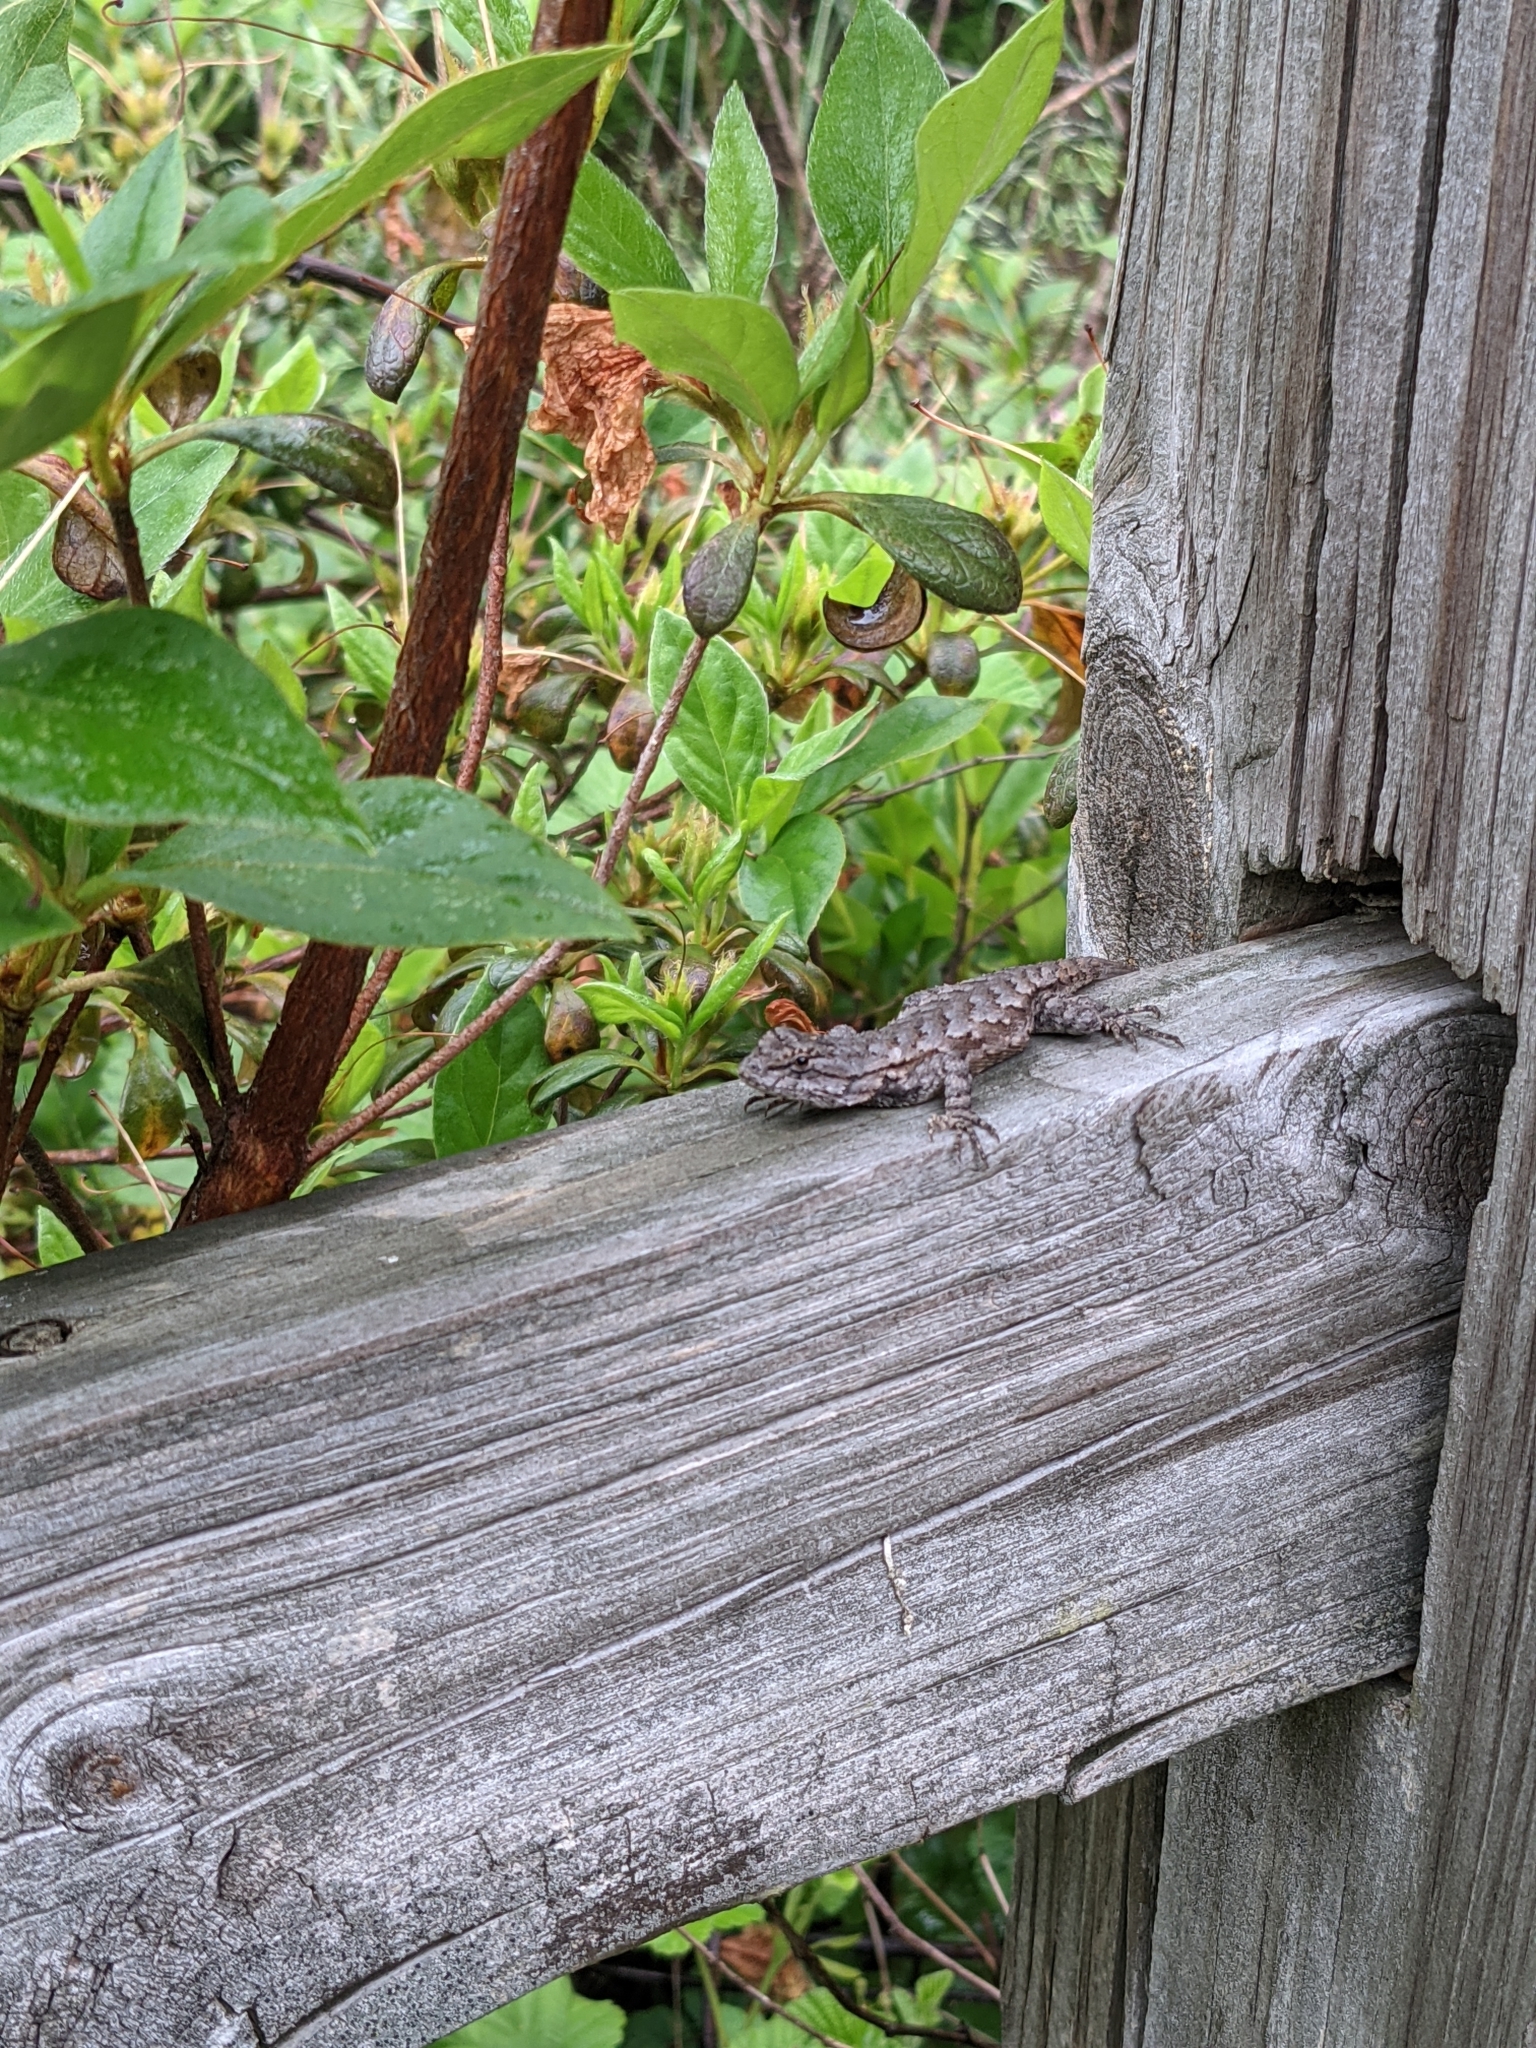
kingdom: Animalia
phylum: Chordata
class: Squamata
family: Phrynosomatidae
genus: Sceloporus
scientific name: Sceloporus undulatus
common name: Eastern fence lizard
